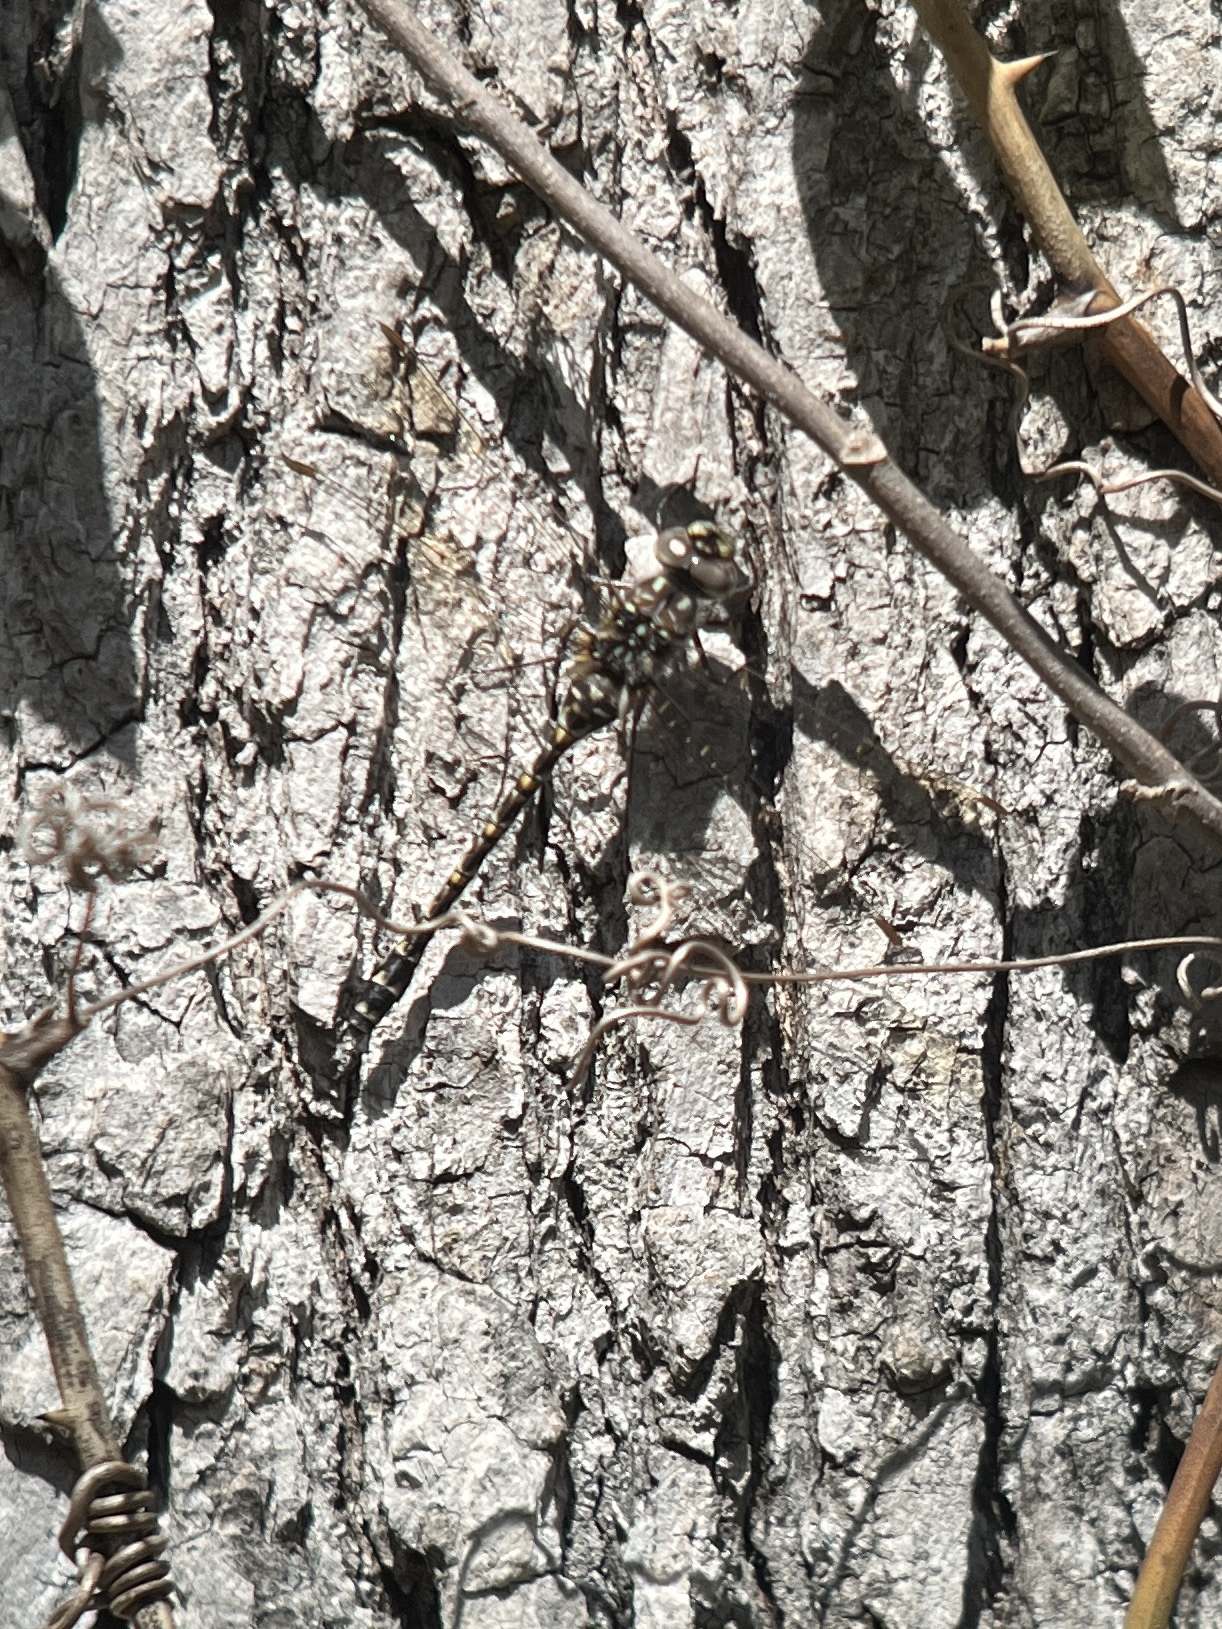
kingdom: Animalia
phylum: Arthropoda
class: Insecta
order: Odonata
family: Aeshnidae
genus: Gomphaeschna
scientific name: Gomphaeschna furcillata
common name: Harlequin darner
